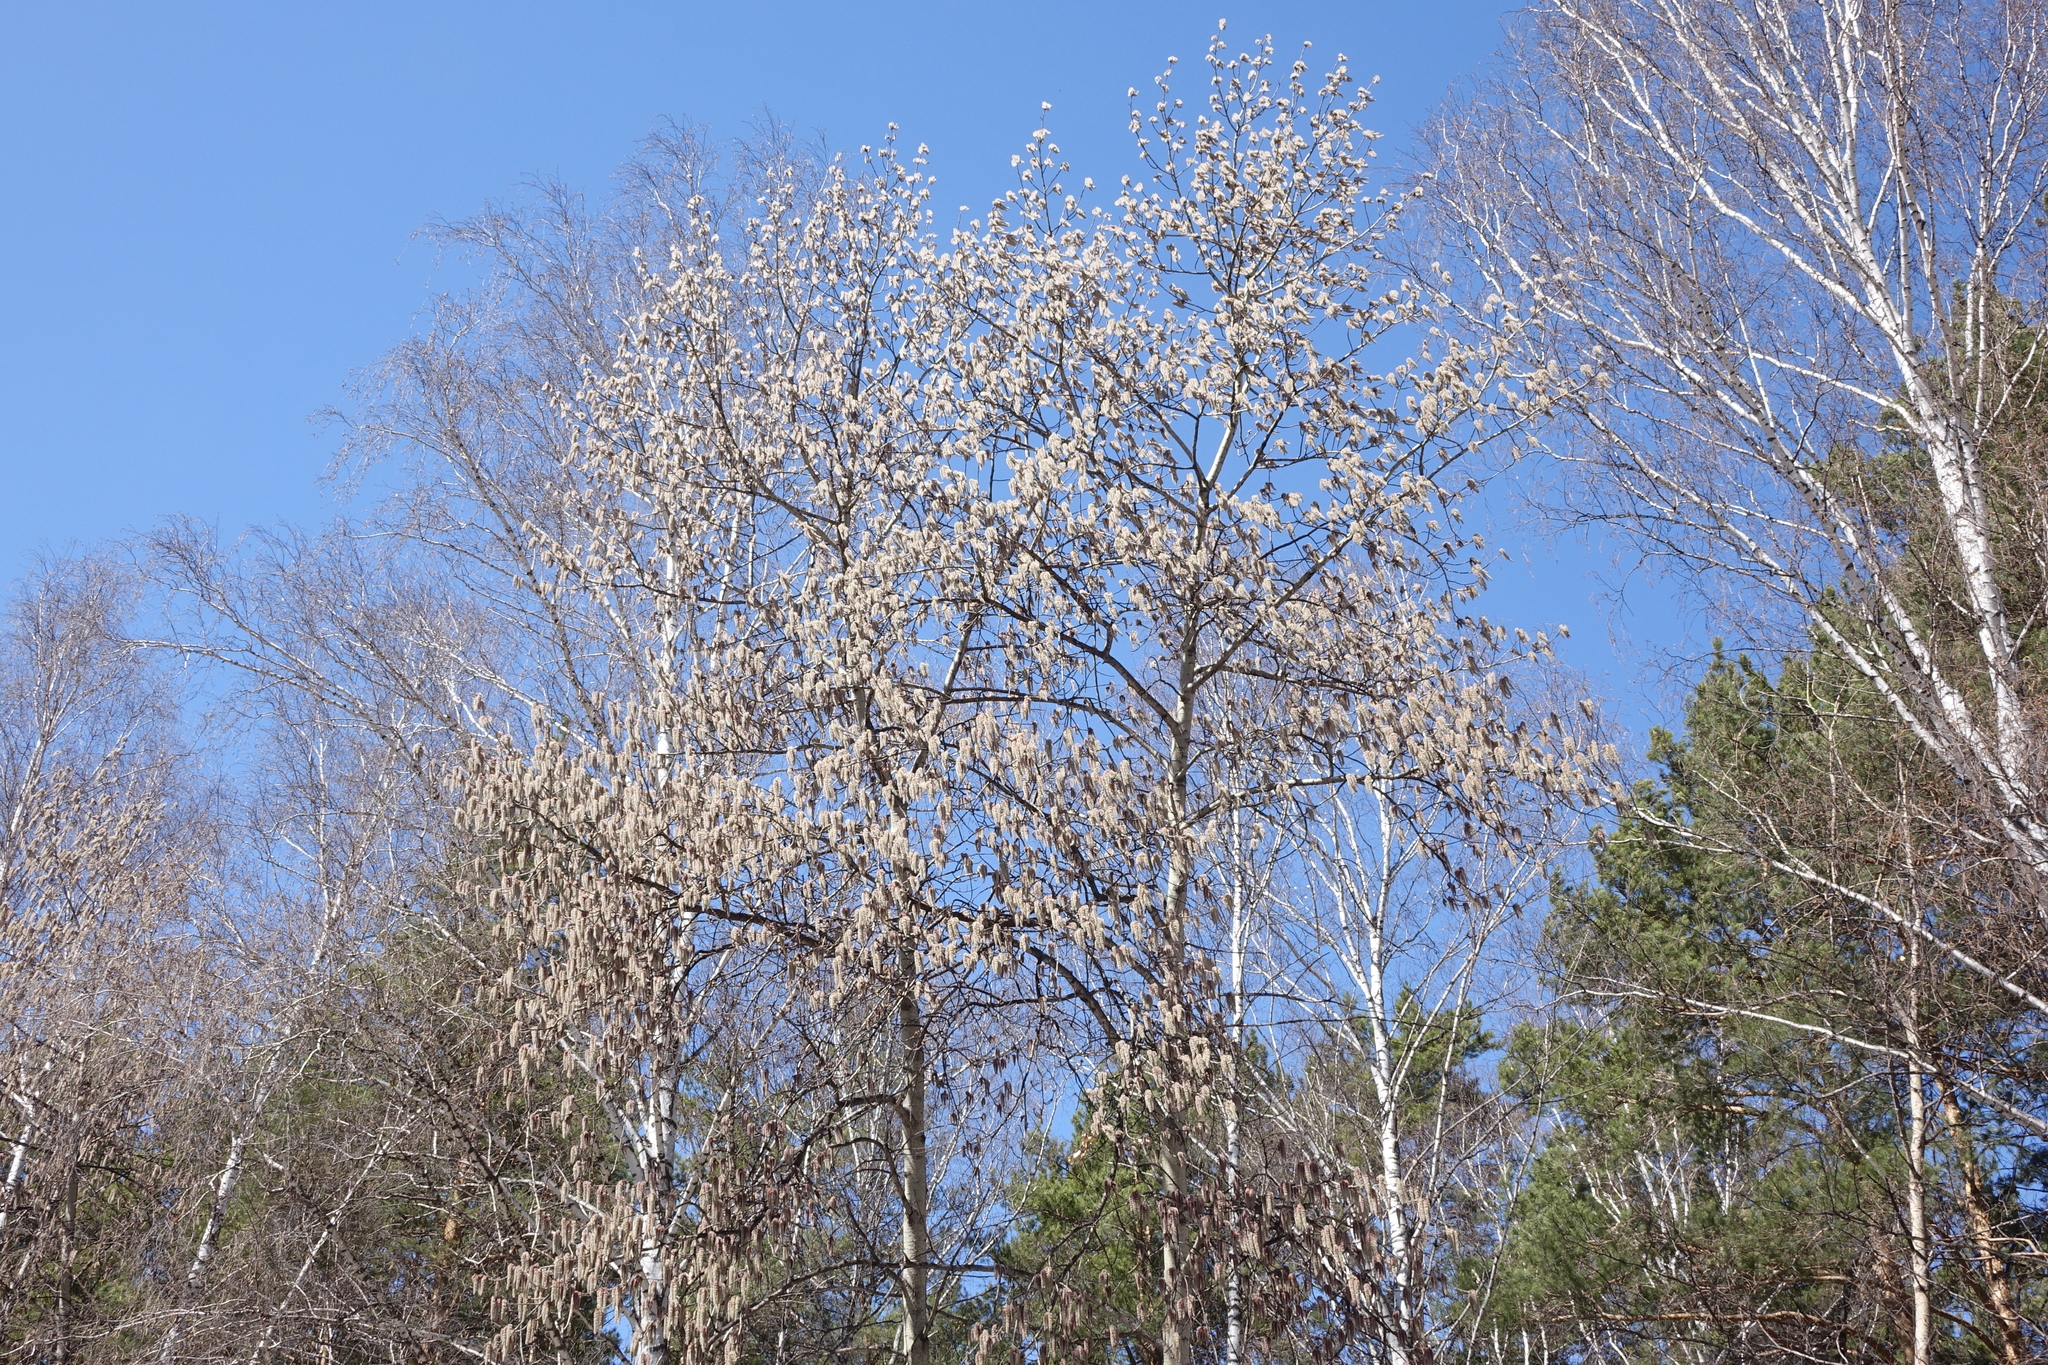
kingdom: Plantae
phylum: Tracheophyta
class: Magnoliopsida
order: Malpighiales
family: Salicaceae
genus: Populus
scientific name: Populus tremula
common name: European aspen
